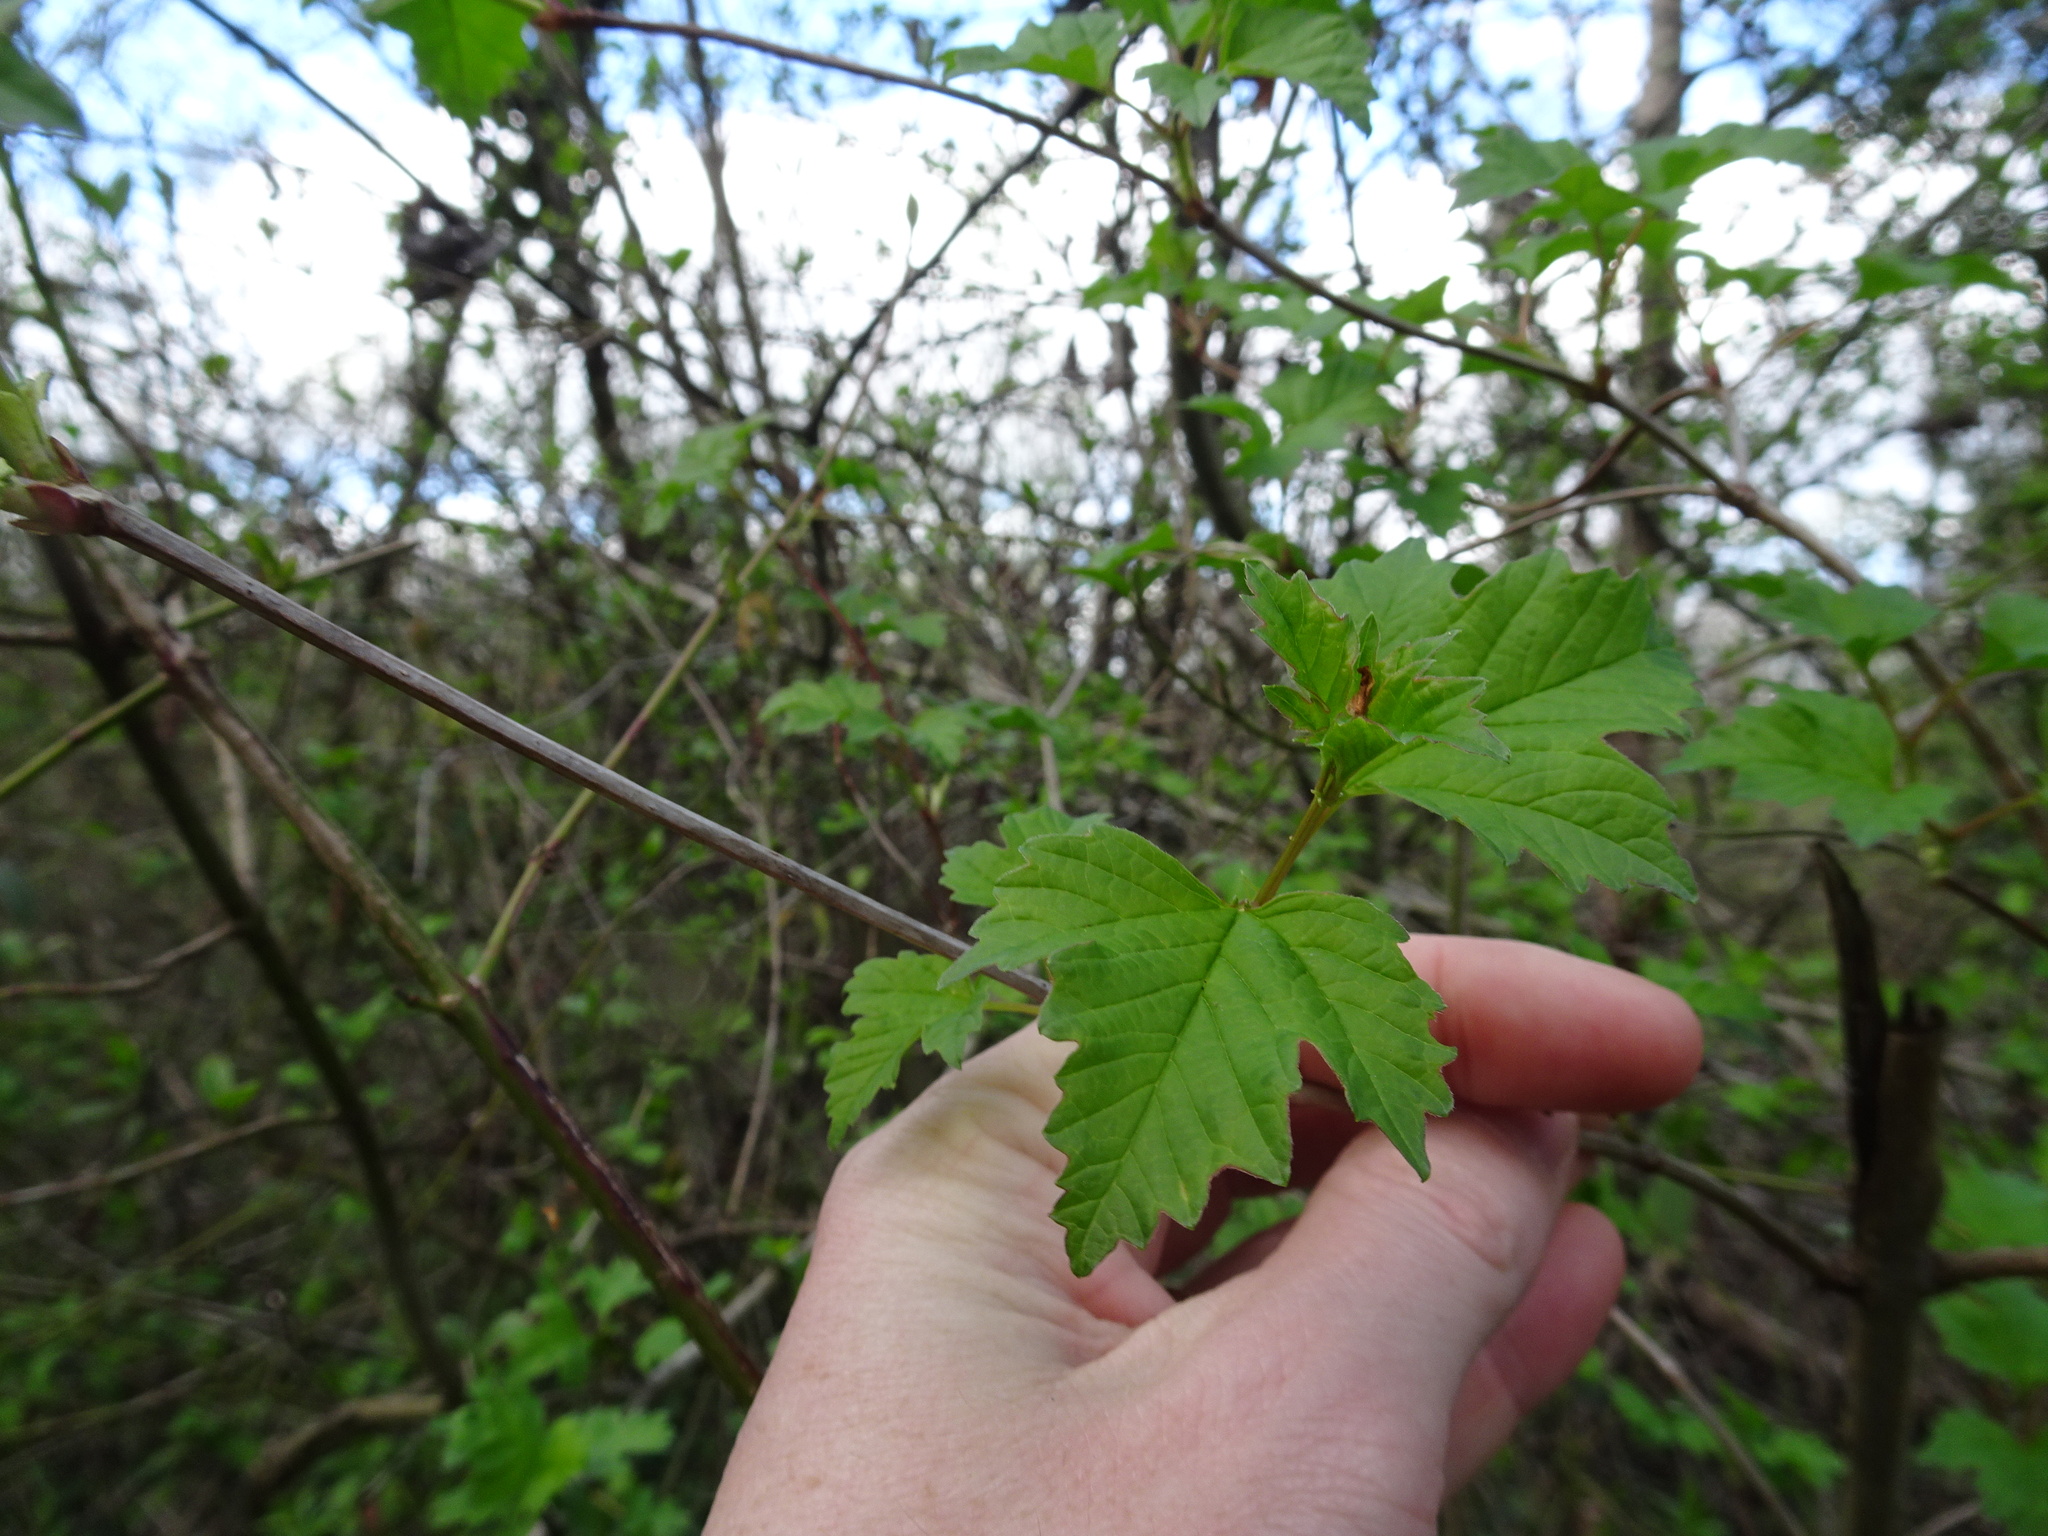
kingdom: Plantae
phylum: Tracheophyta
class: Magnoliopsida
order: Dipsacales
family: Viburnaceae
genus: Viburnum
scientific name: Viburnum opulus
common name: Guelder-rose
